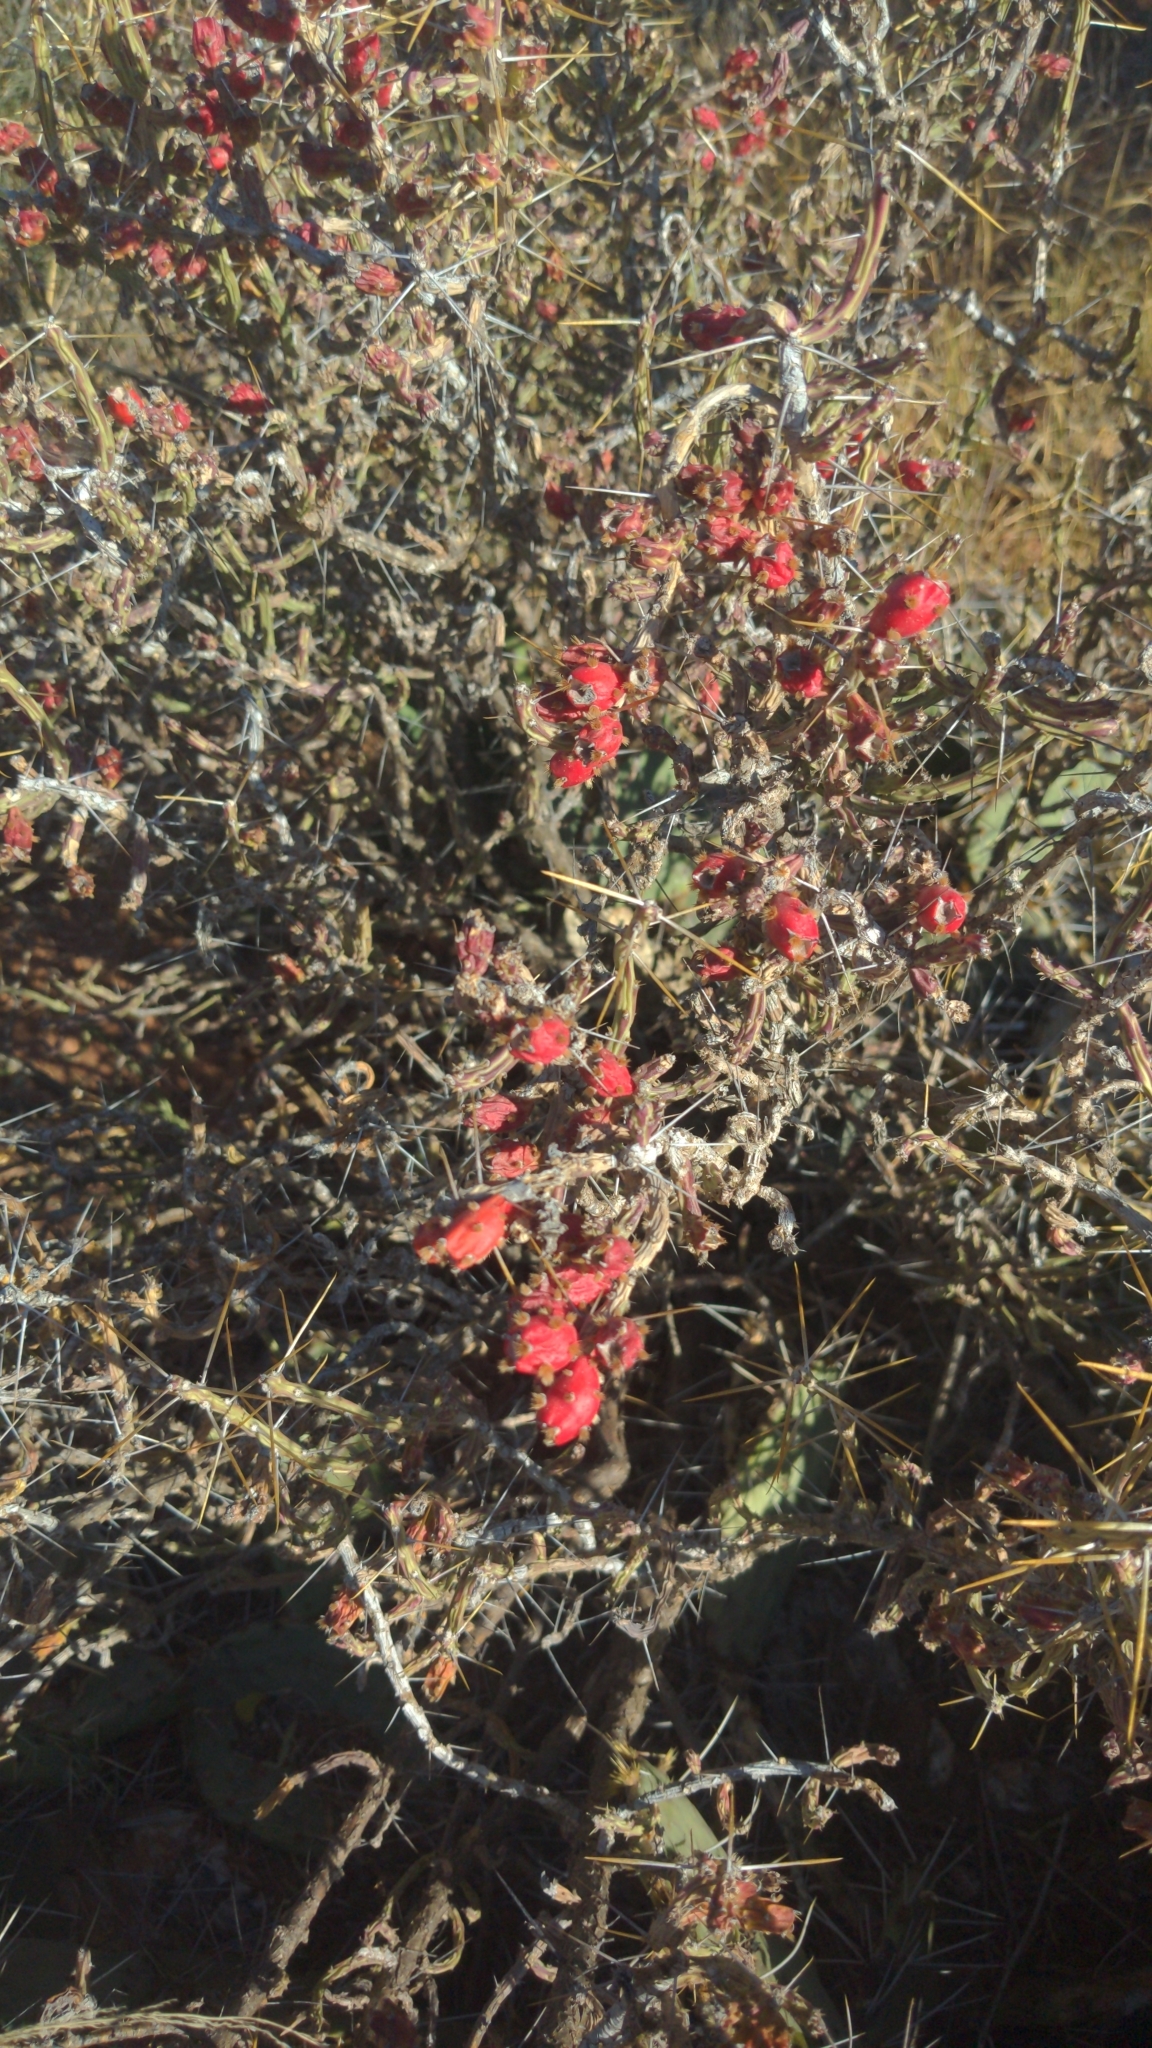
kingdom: Plantae
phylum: Tracheophyta
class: Magnoliopsida
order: Caryophyllales
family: Cactaceae
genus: Cylindropuntia
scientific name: Cylindropuntia leptocaulis
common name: Christmas cactus
